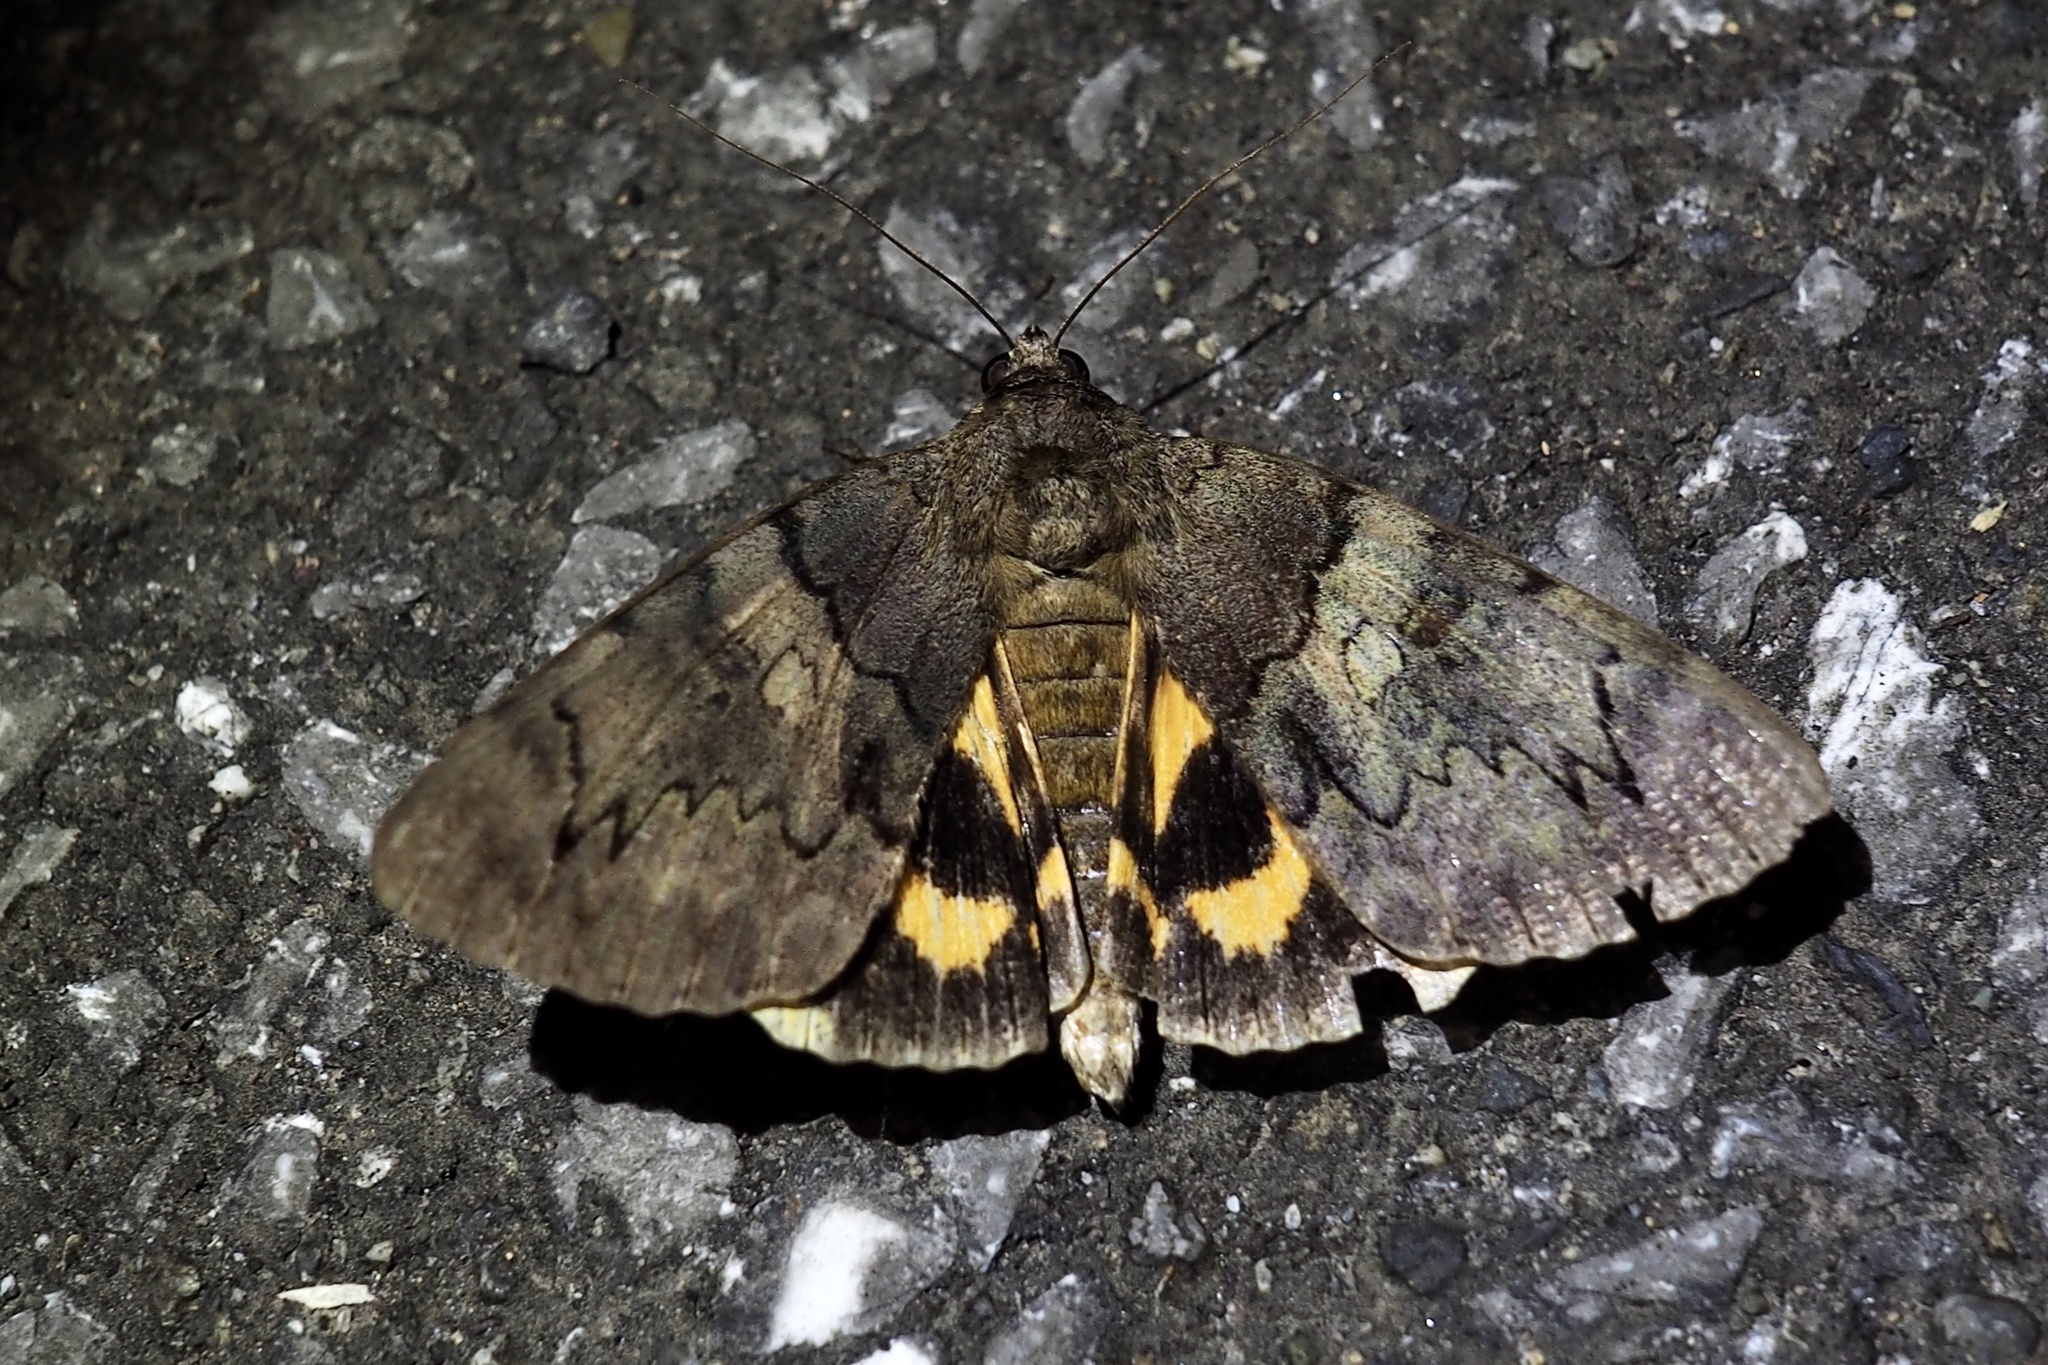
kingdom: Animalia
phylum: Arthropoda
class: Insecta
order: Lepidoptera
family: Erebidae
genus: Catocala
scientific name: Catocala patala
